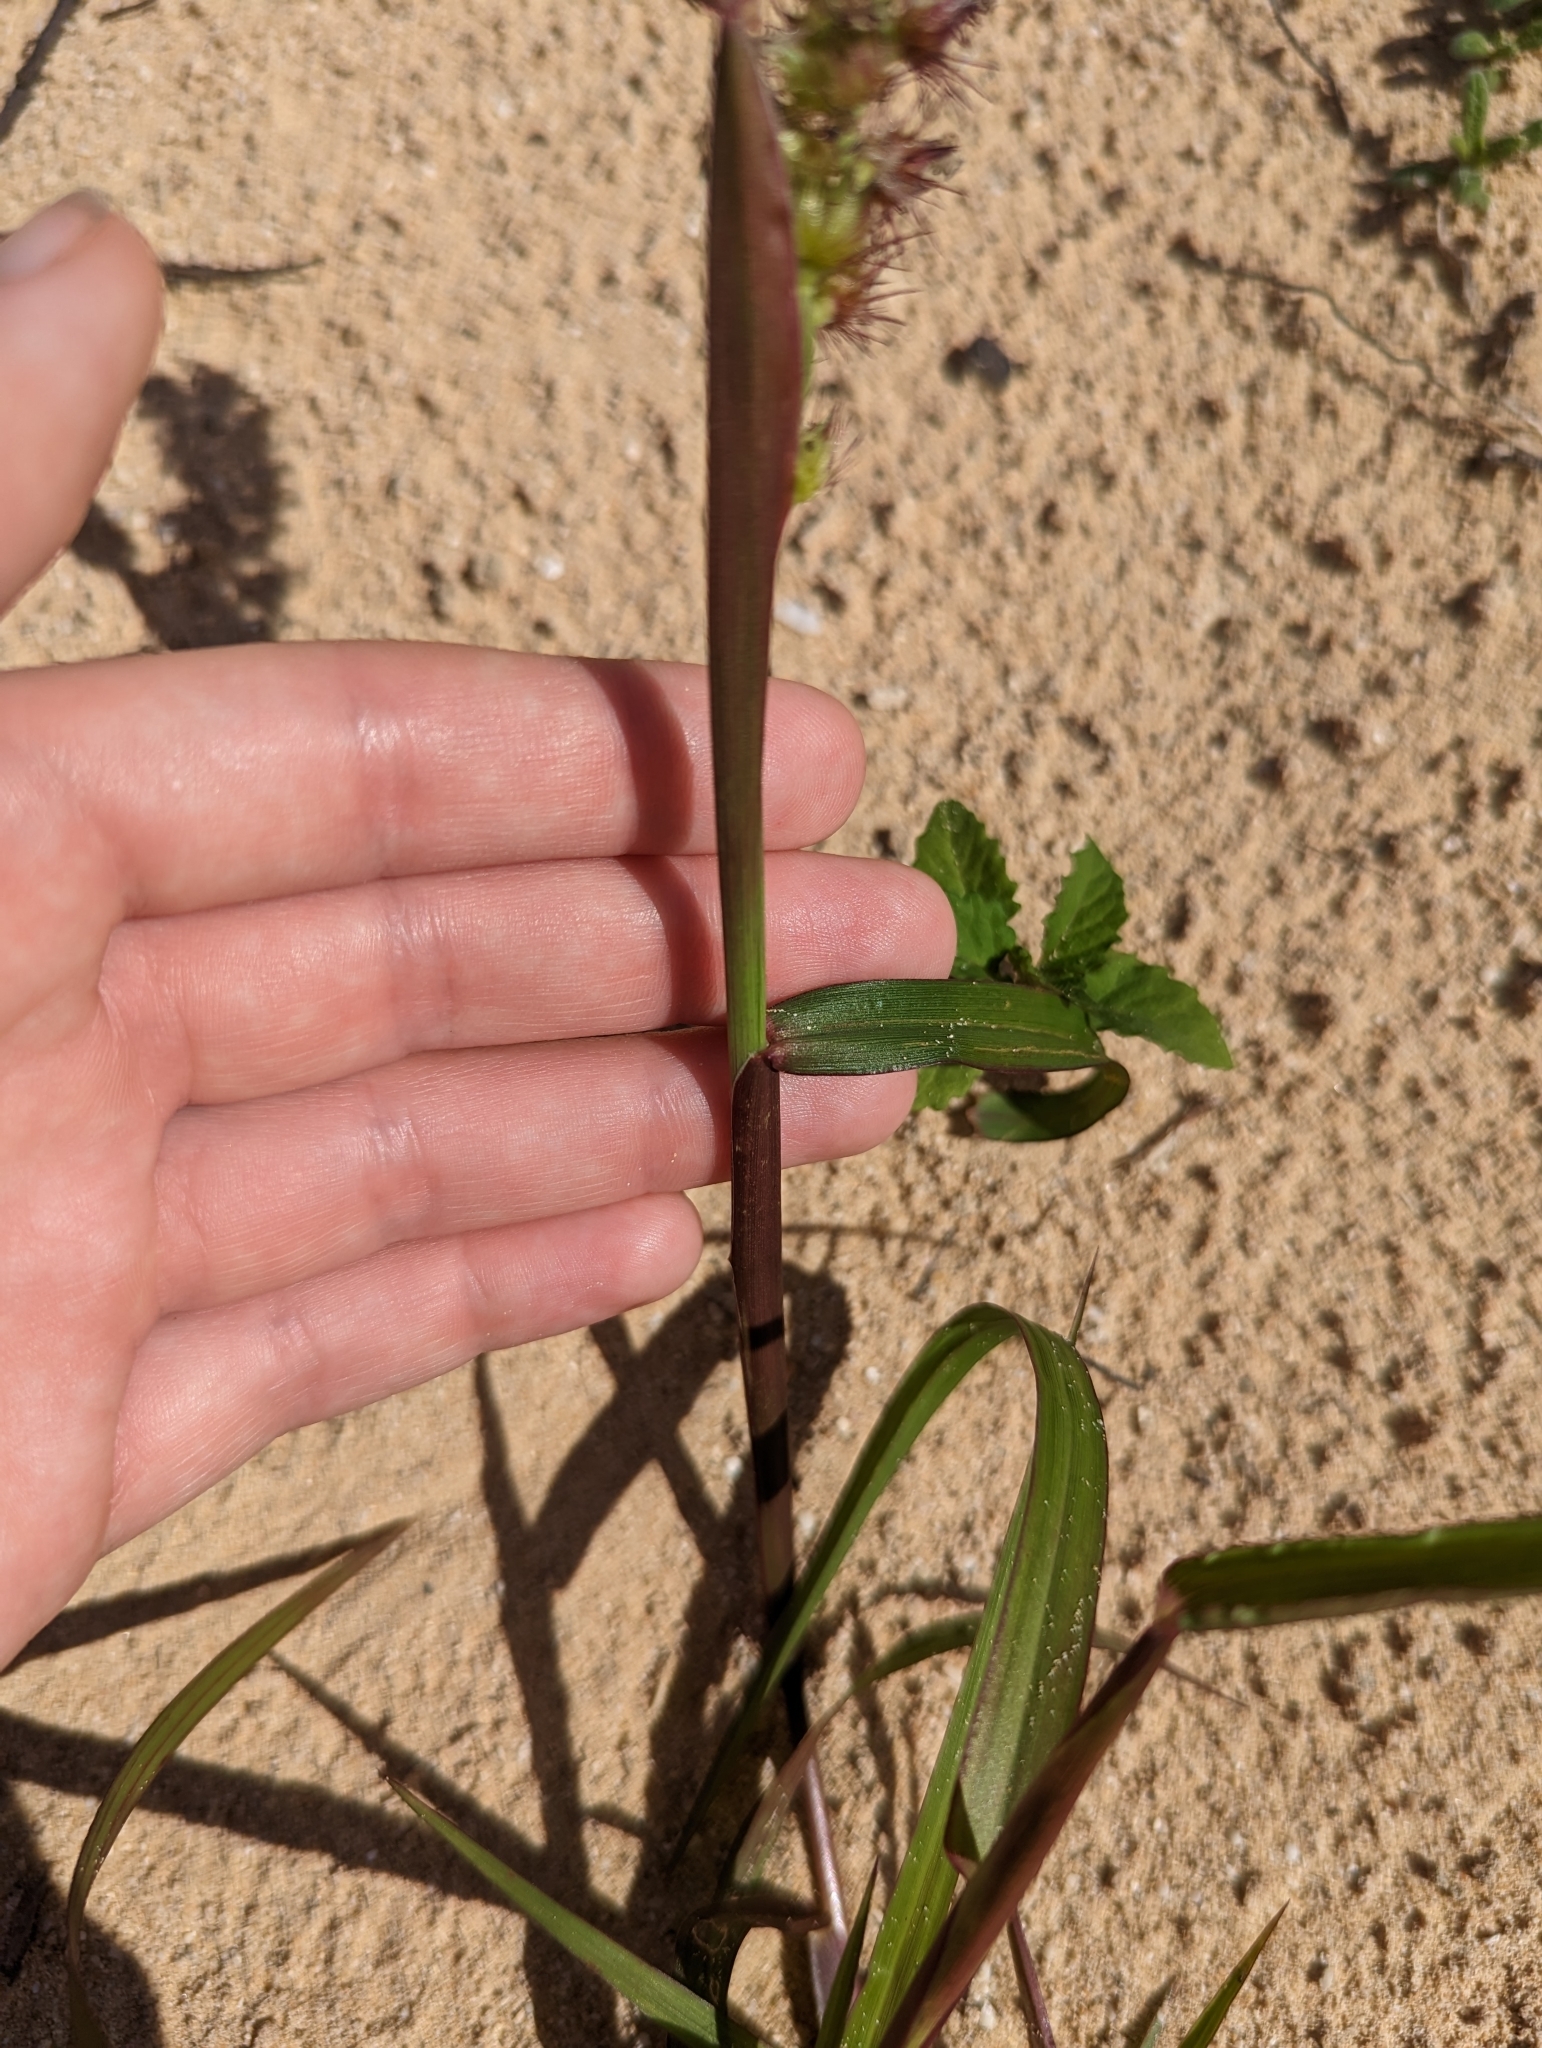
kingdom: Plantae
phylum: Tracheophyta
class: Liliopsida
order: Poales
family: Poaceae
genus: Cenchrus
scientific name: Cenchrus echinatus
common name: Southern sandbur
